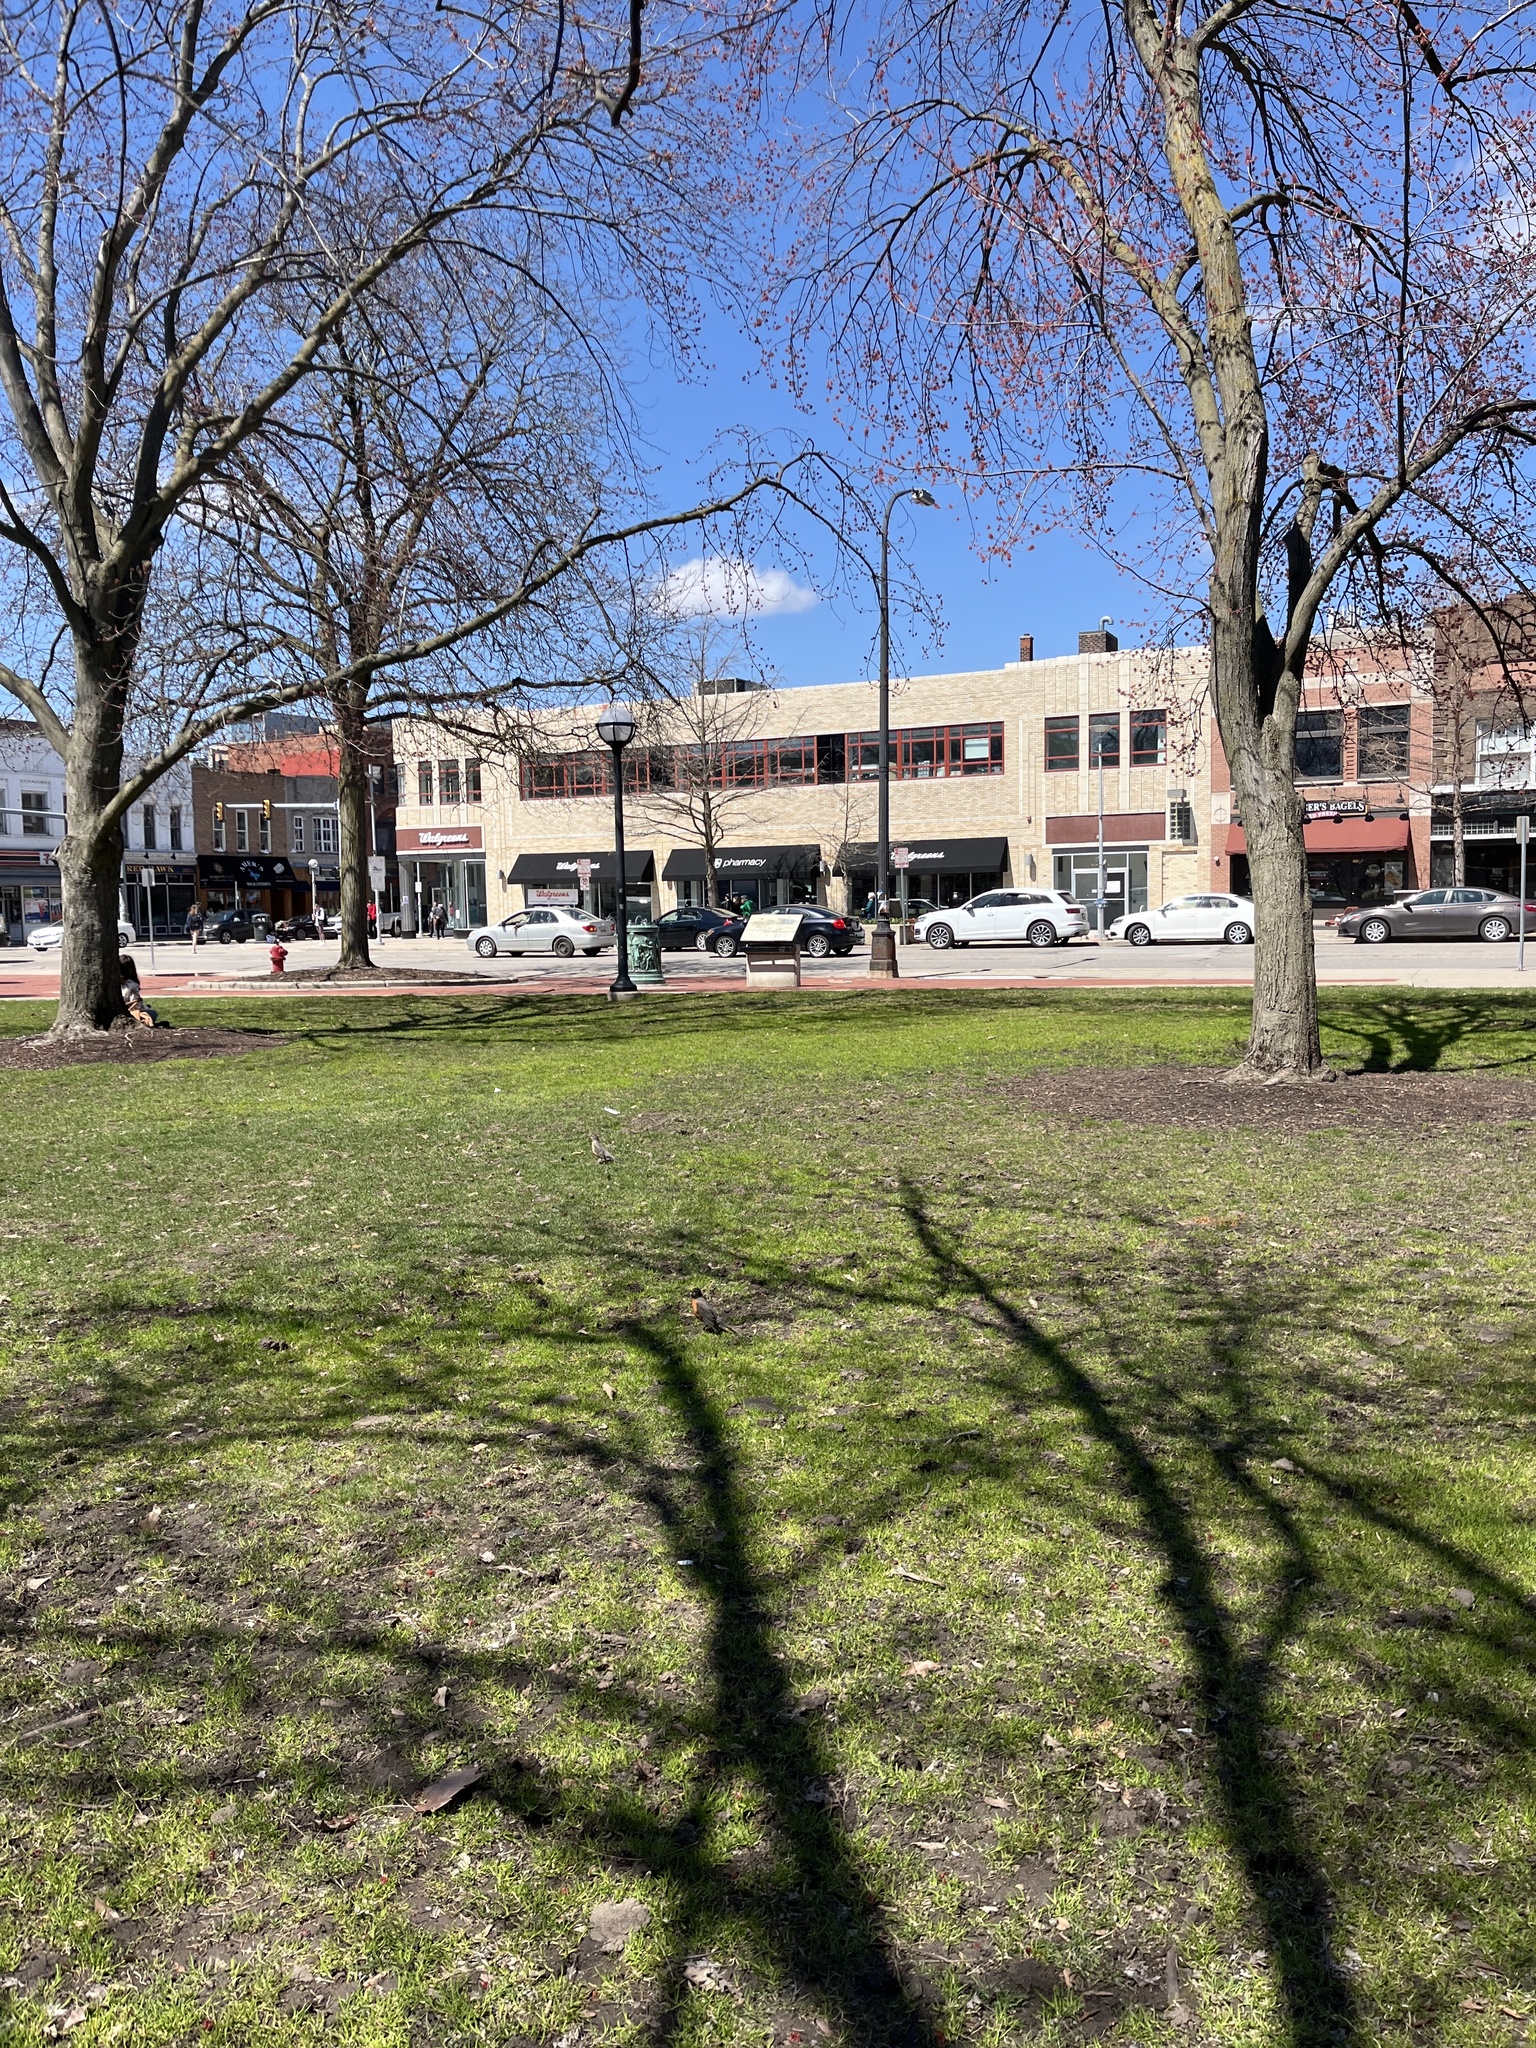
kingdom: Animalia
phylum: Chordata
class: Aves
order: Passeriformes
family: Turdidae
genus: Turdus
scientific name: Turdus migratorius
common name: American robin
